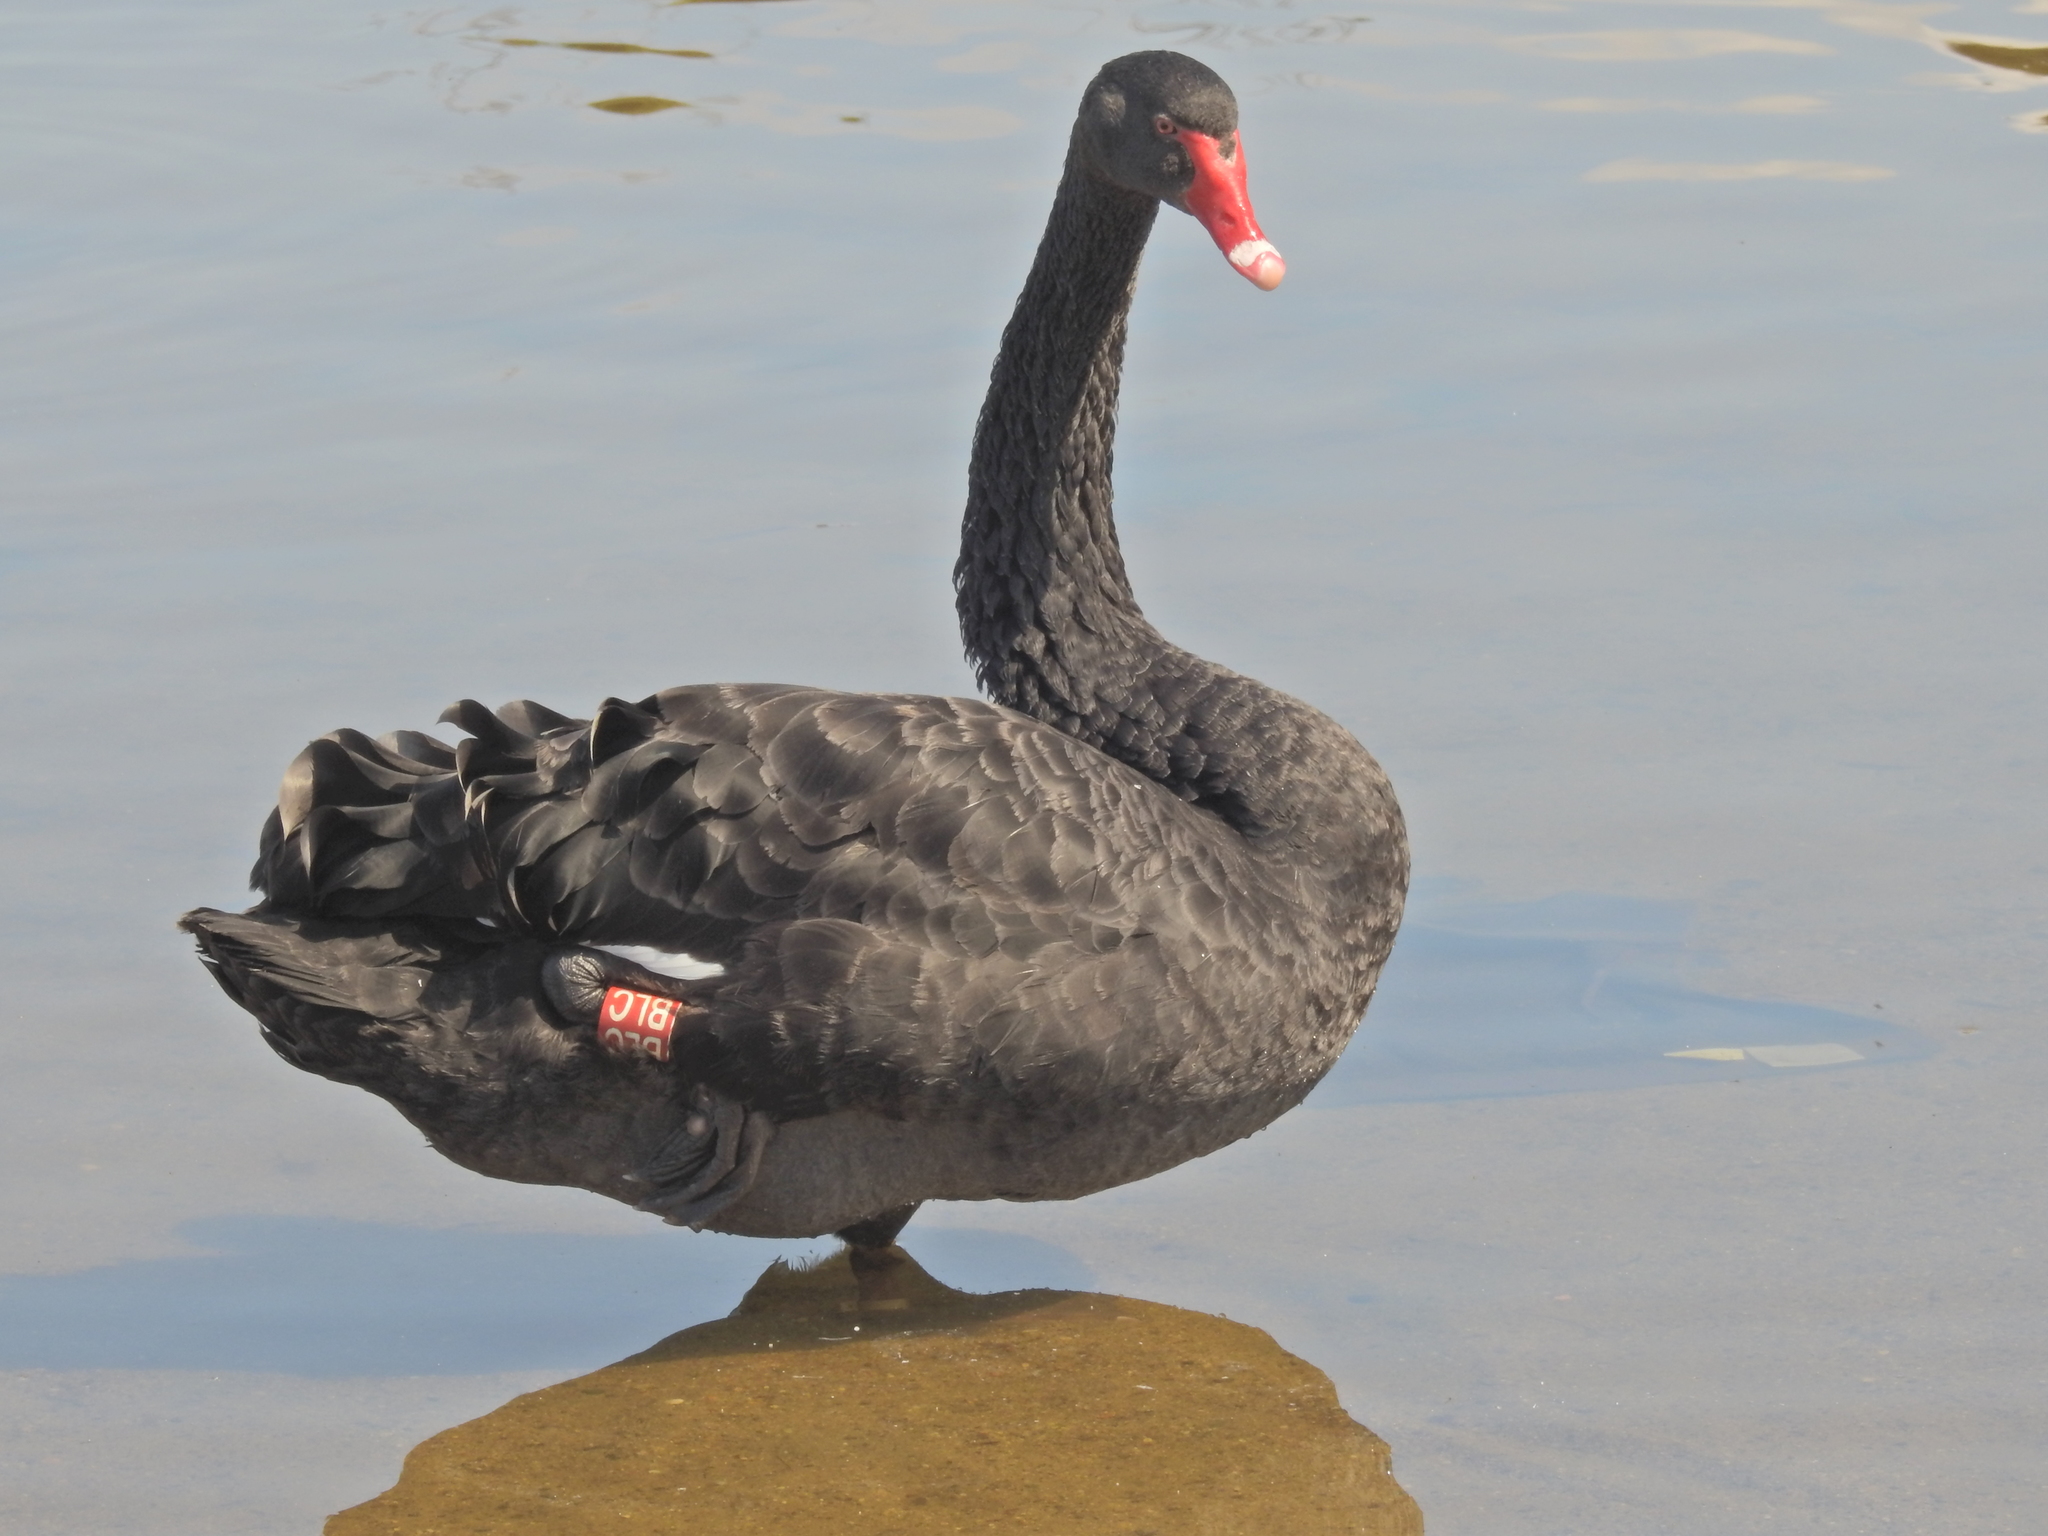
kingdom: Animalia
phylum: Chordata
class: Aves
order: Anseriformes
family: Anatidae
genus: Cygnus
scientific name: Cygnus atratus
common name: Black swan
